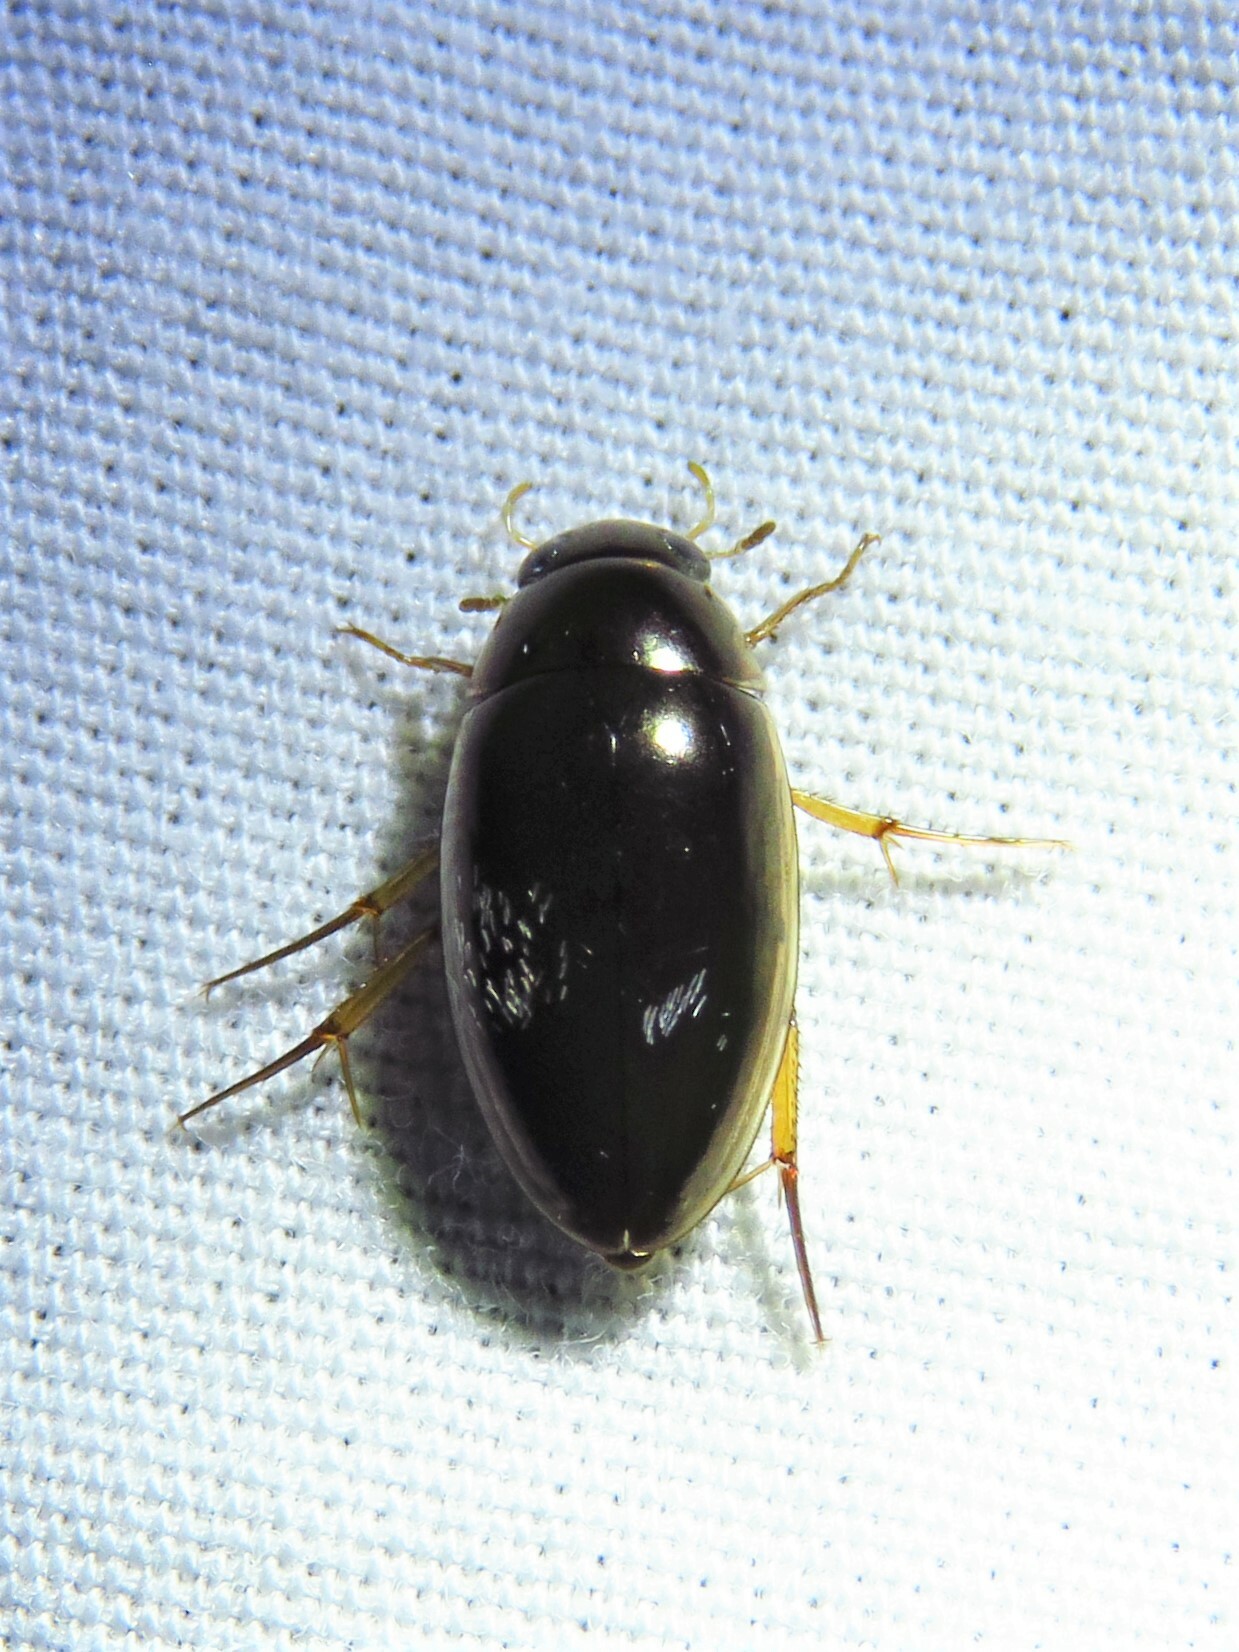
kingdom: Animalia
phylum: Arthropoda
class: Insecta
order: Coleoptera
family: Hydrophilidae
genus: Tropisternus
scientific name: Tropisternus lateralis
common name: Lateral-banded water scavenger beetle
